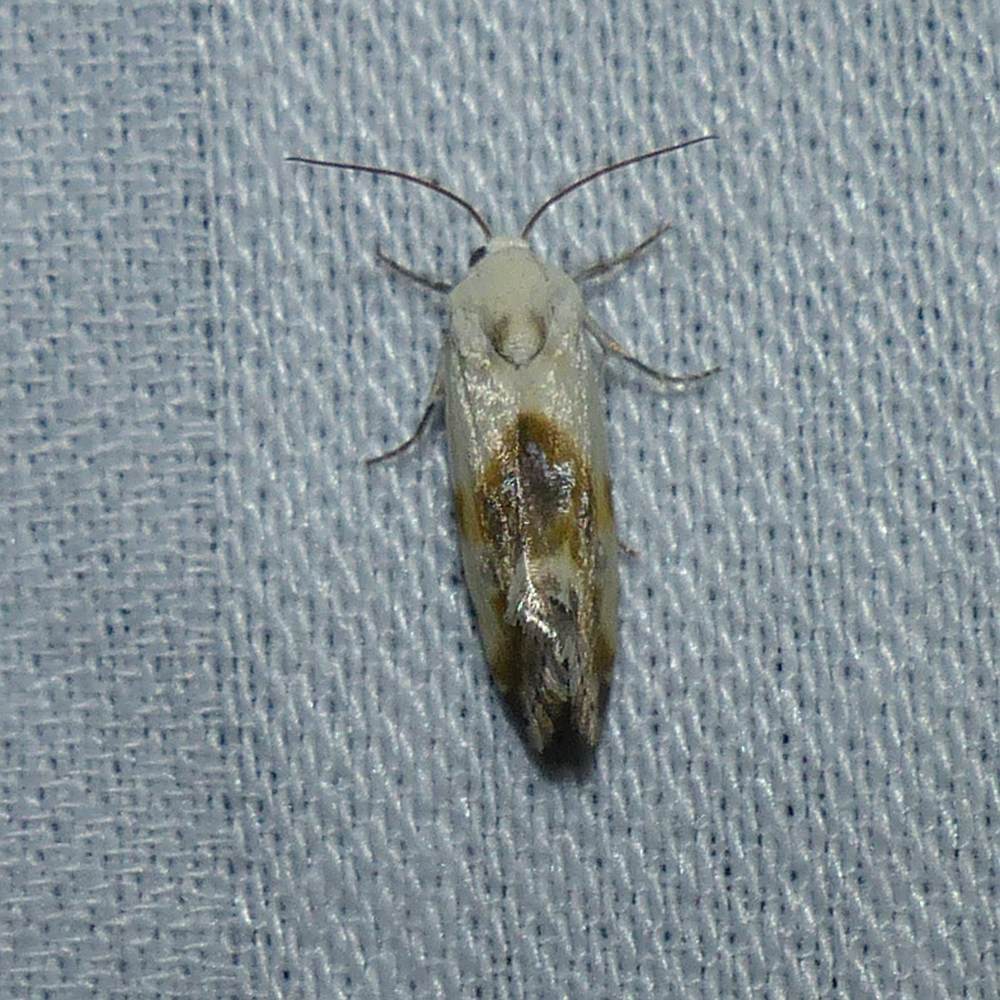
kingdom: Animalia
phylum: Arthropoda
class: Insecta
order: Lepidoptera
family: Noctuidae
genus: Acontia
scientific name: Acontia candefacta
